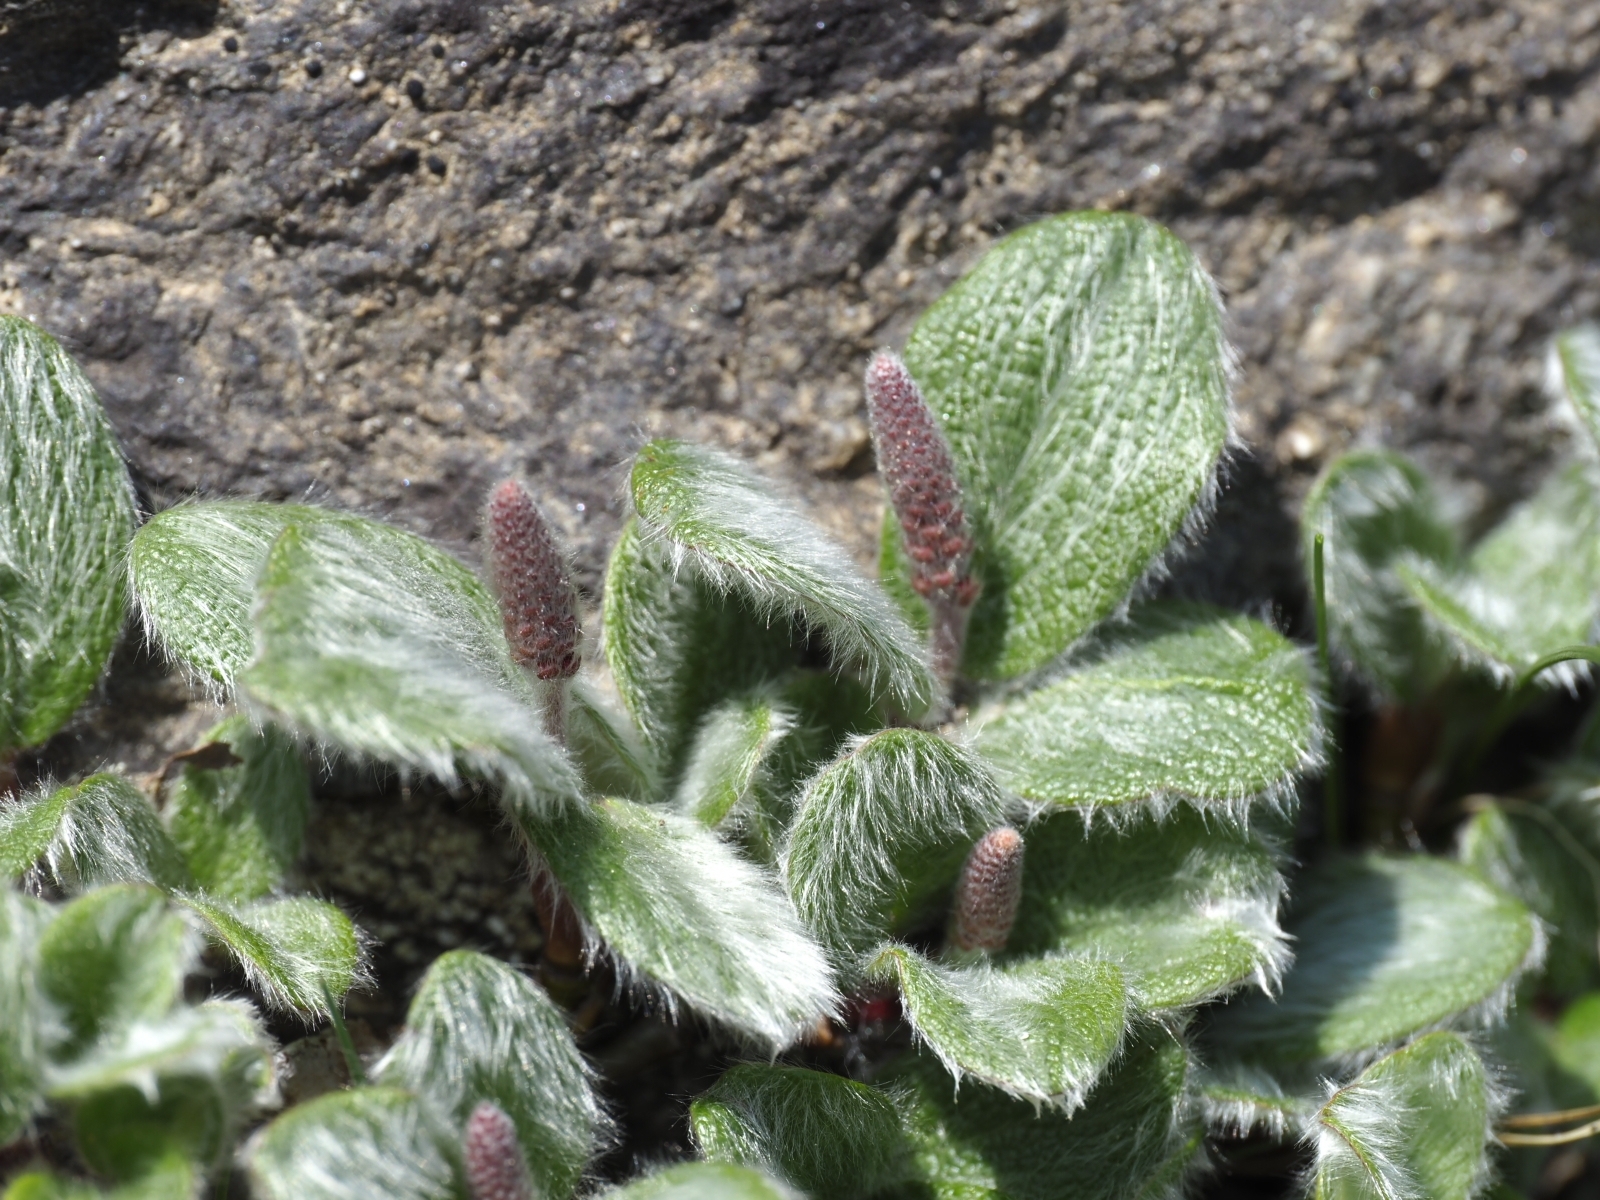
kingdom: Plantae
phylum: Tracheophyta
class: Magnoliopsida
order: Malpighiales
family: Salicaceae
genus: Salix
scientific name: Salix reticulata
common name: Net-leaved willow
